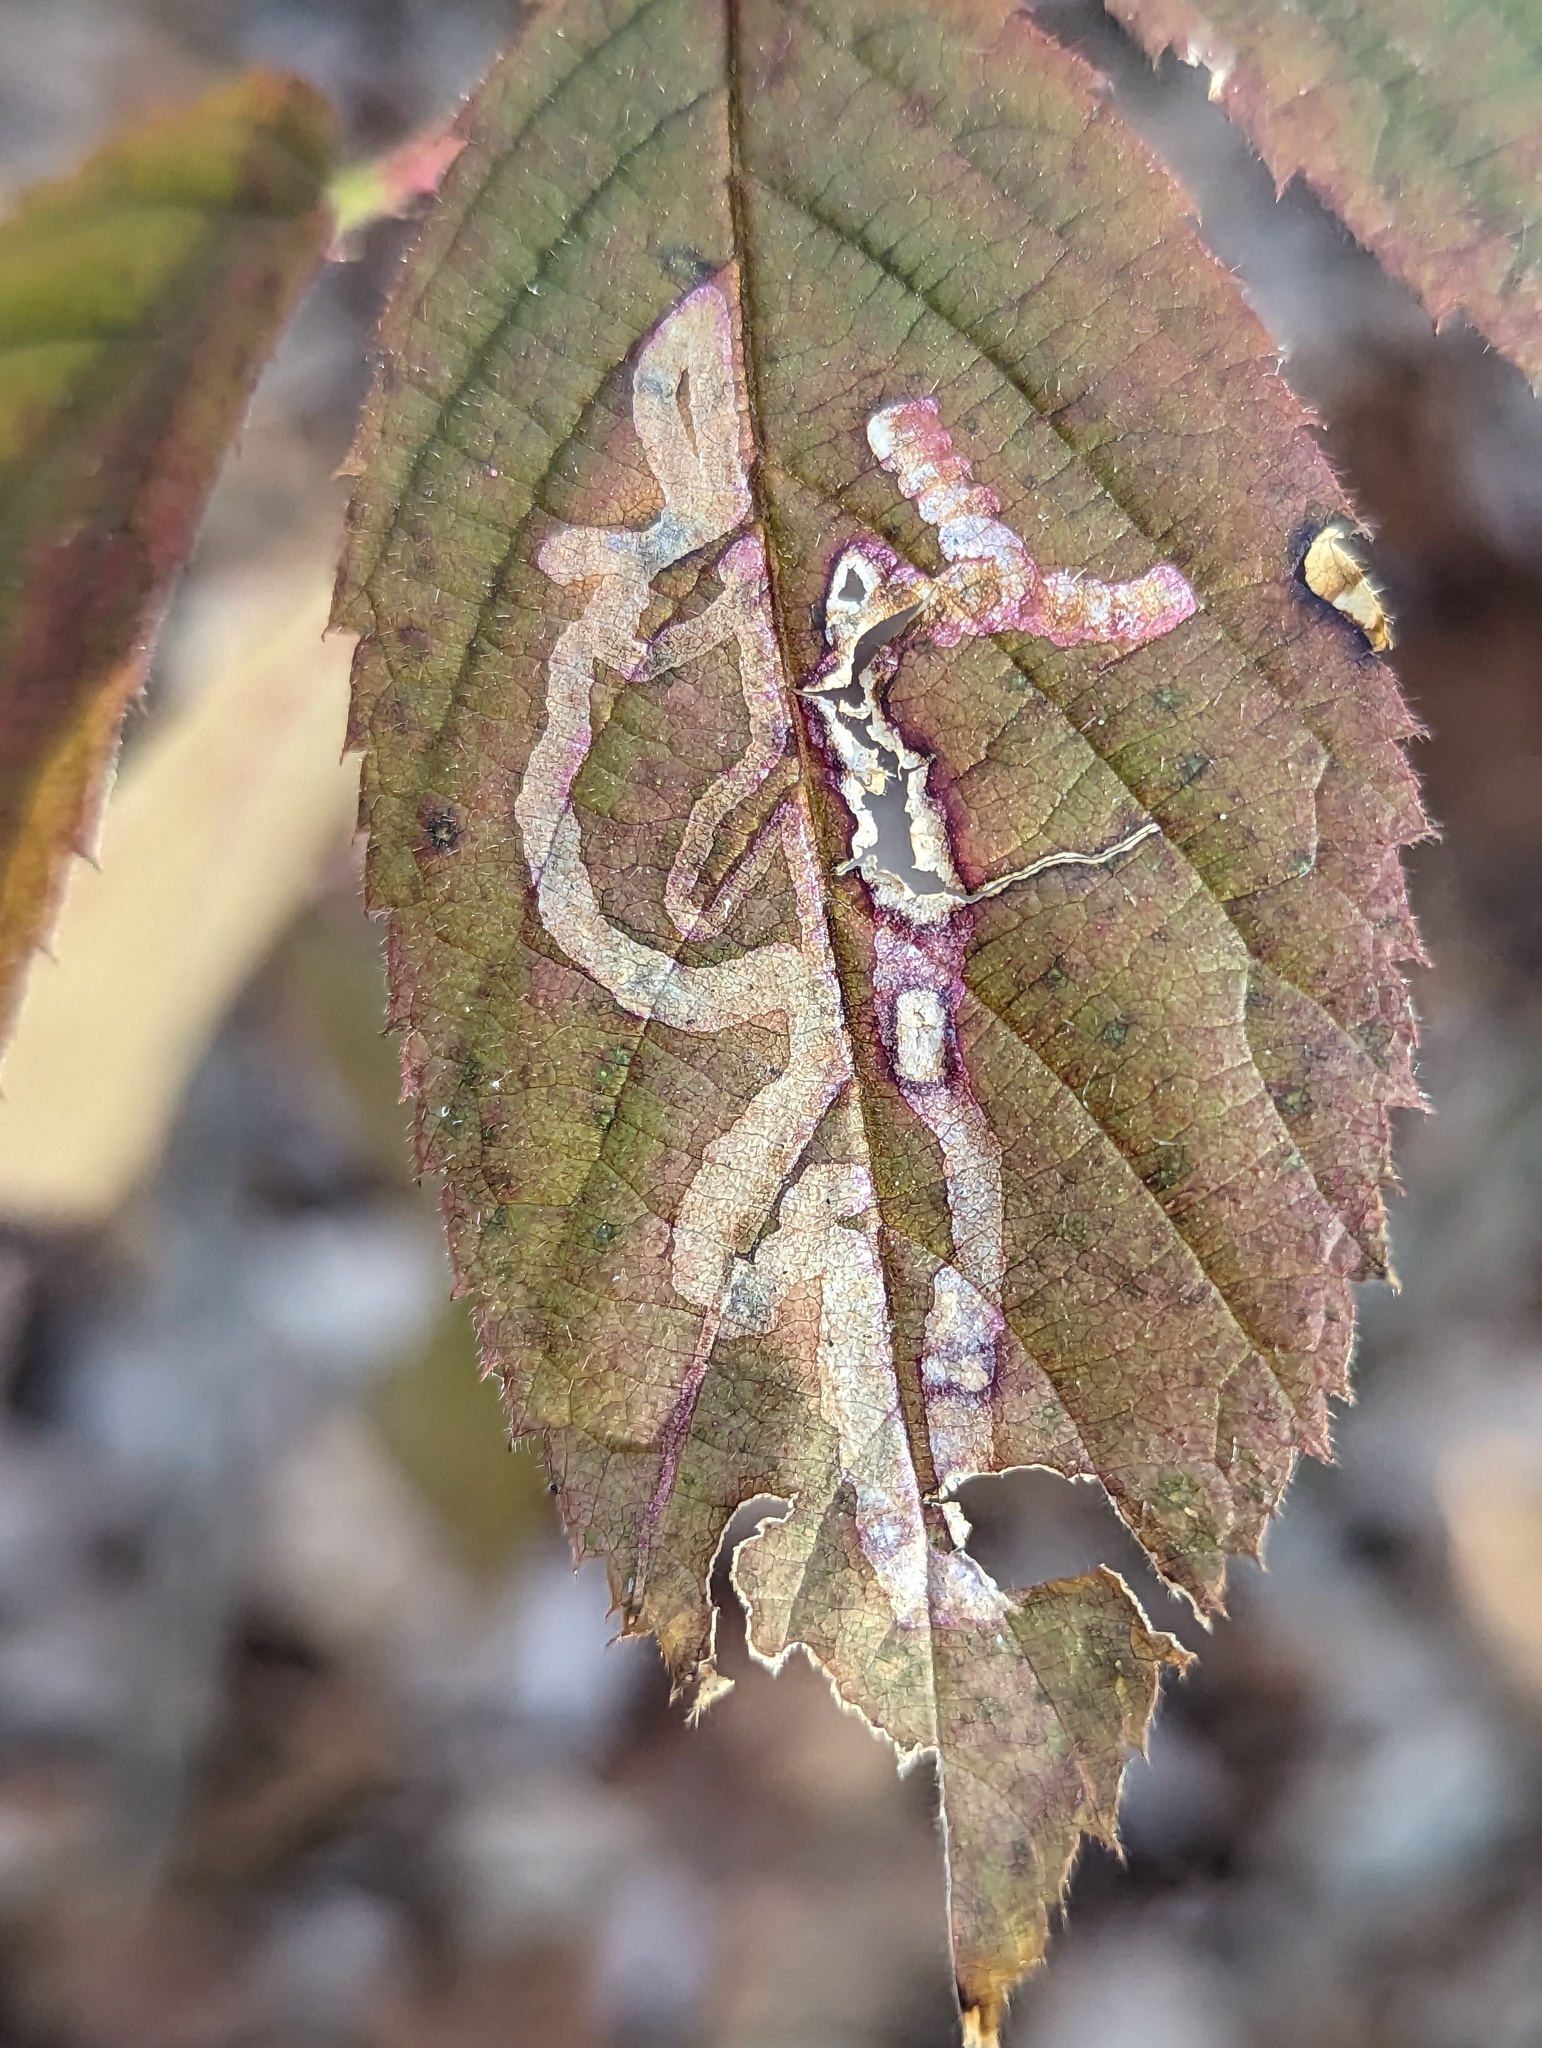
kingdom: Animalia
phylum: Arthropoda
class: Insecta
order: Diptera
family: Agromyzidae
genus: Agromyza
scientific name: Agromyza vockerothi
